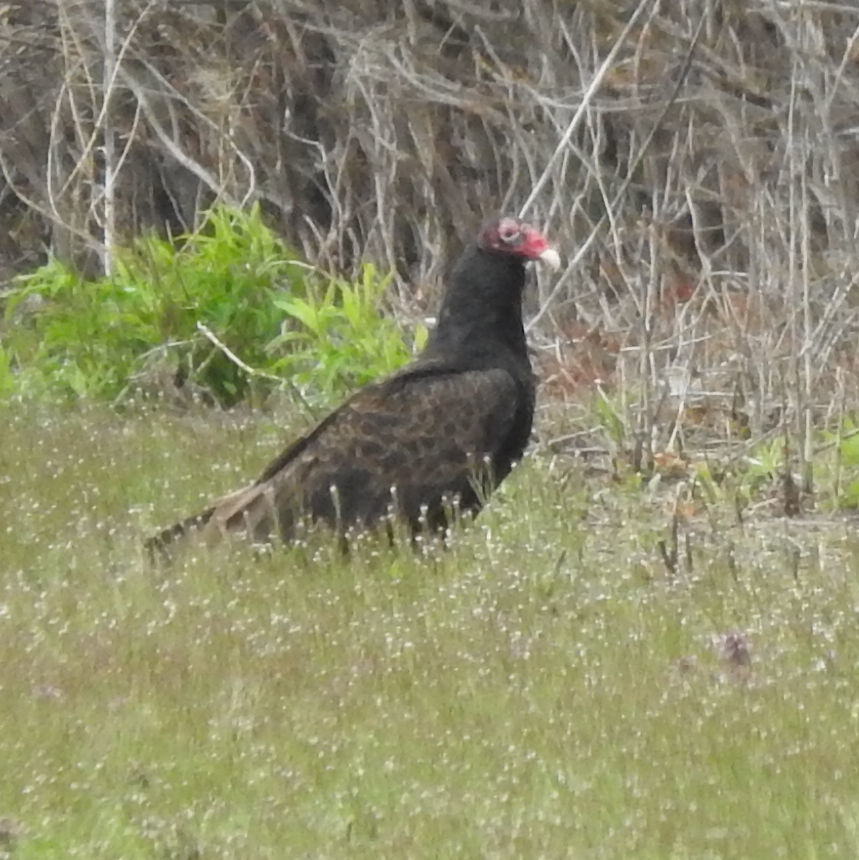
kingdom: Animalia
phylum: Chordata
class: Aves
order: Accipitriformes
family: Cathartidae
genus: Cathartes
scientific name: Cathartes aura
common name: Turkey vulture
